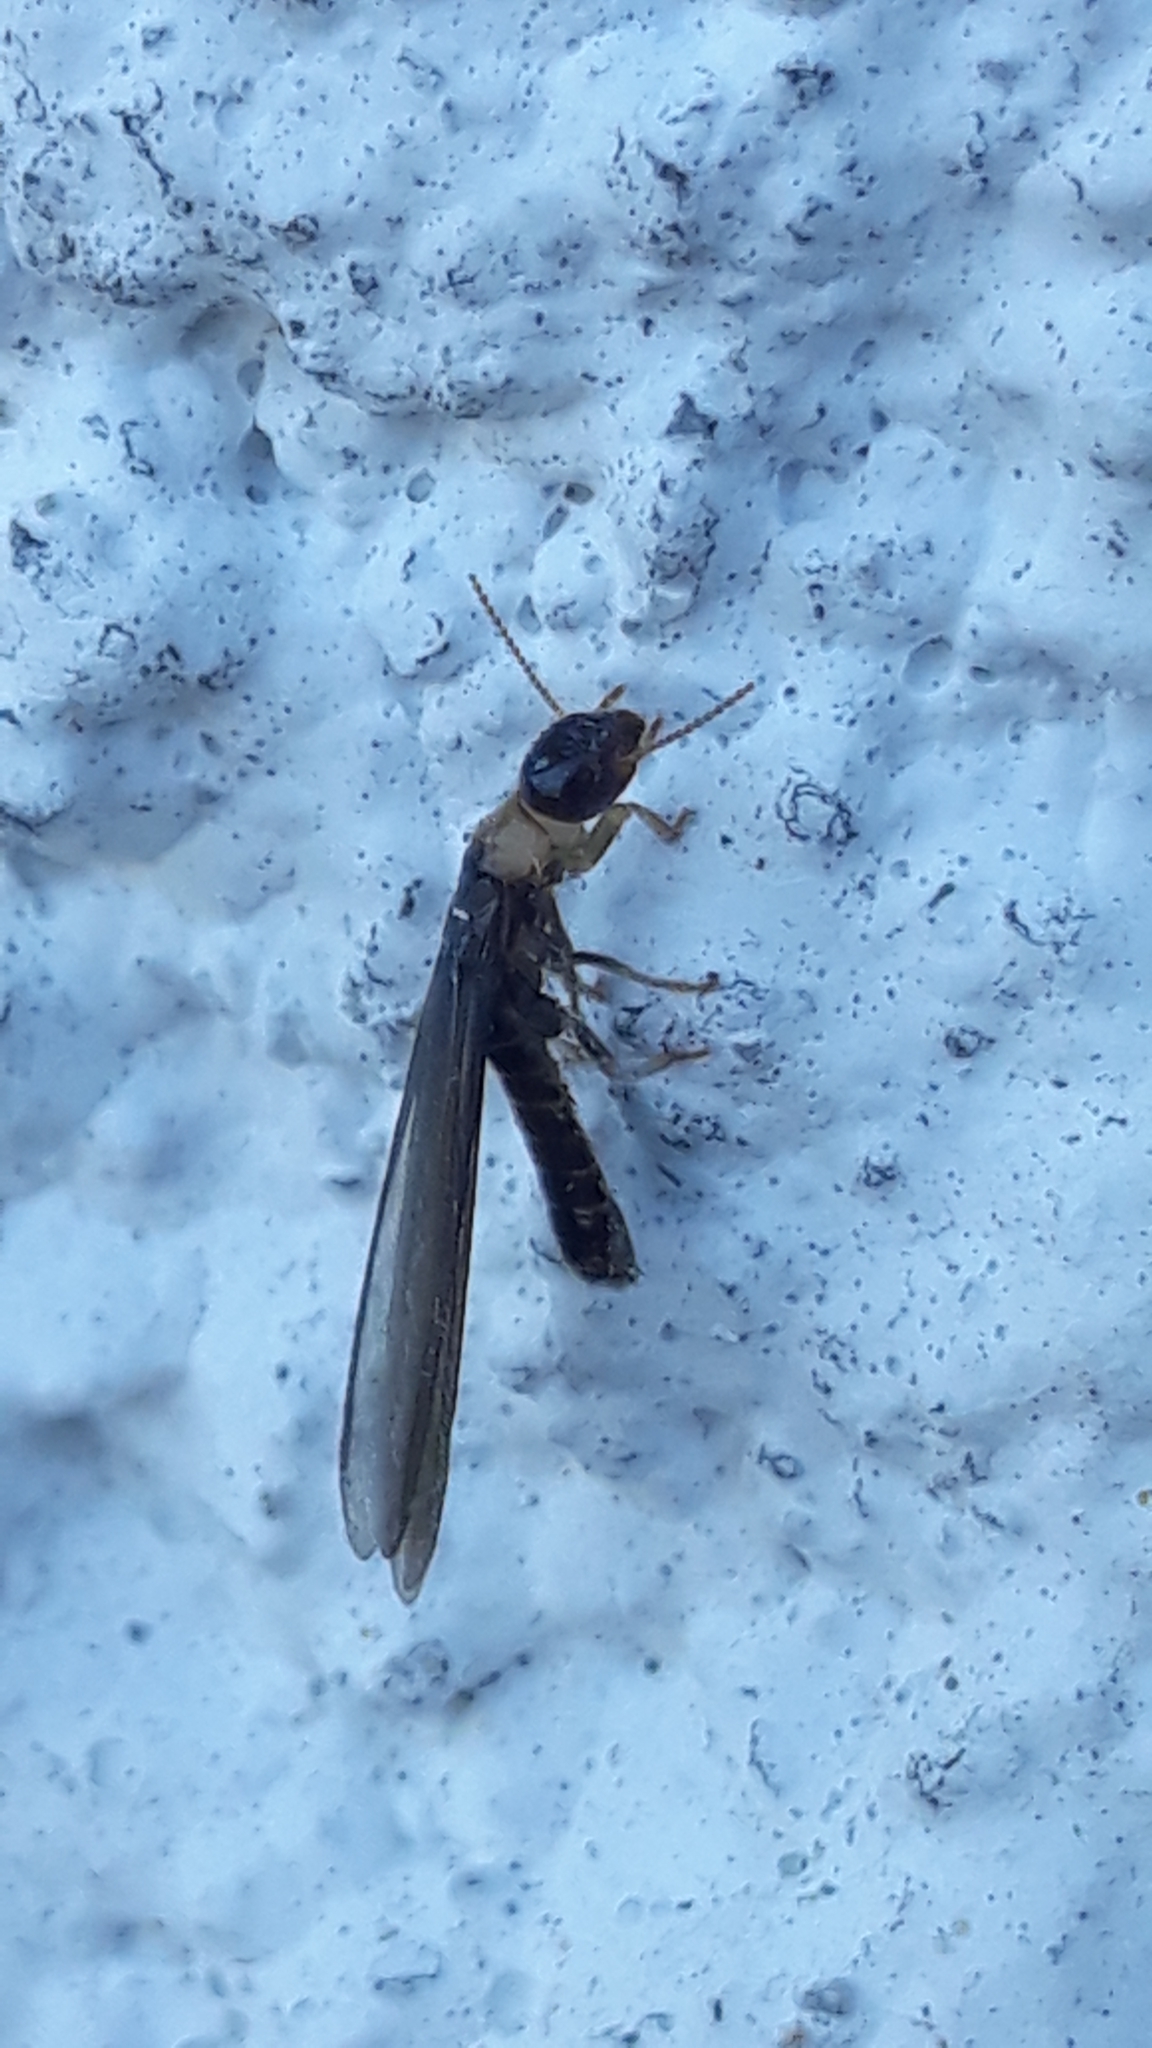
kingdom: Animalia
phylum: Arthropoda
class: Insecta
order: Blattodea
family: Kalotermitidae
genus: Kalotermes
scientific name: Kalotermes flavicollis
